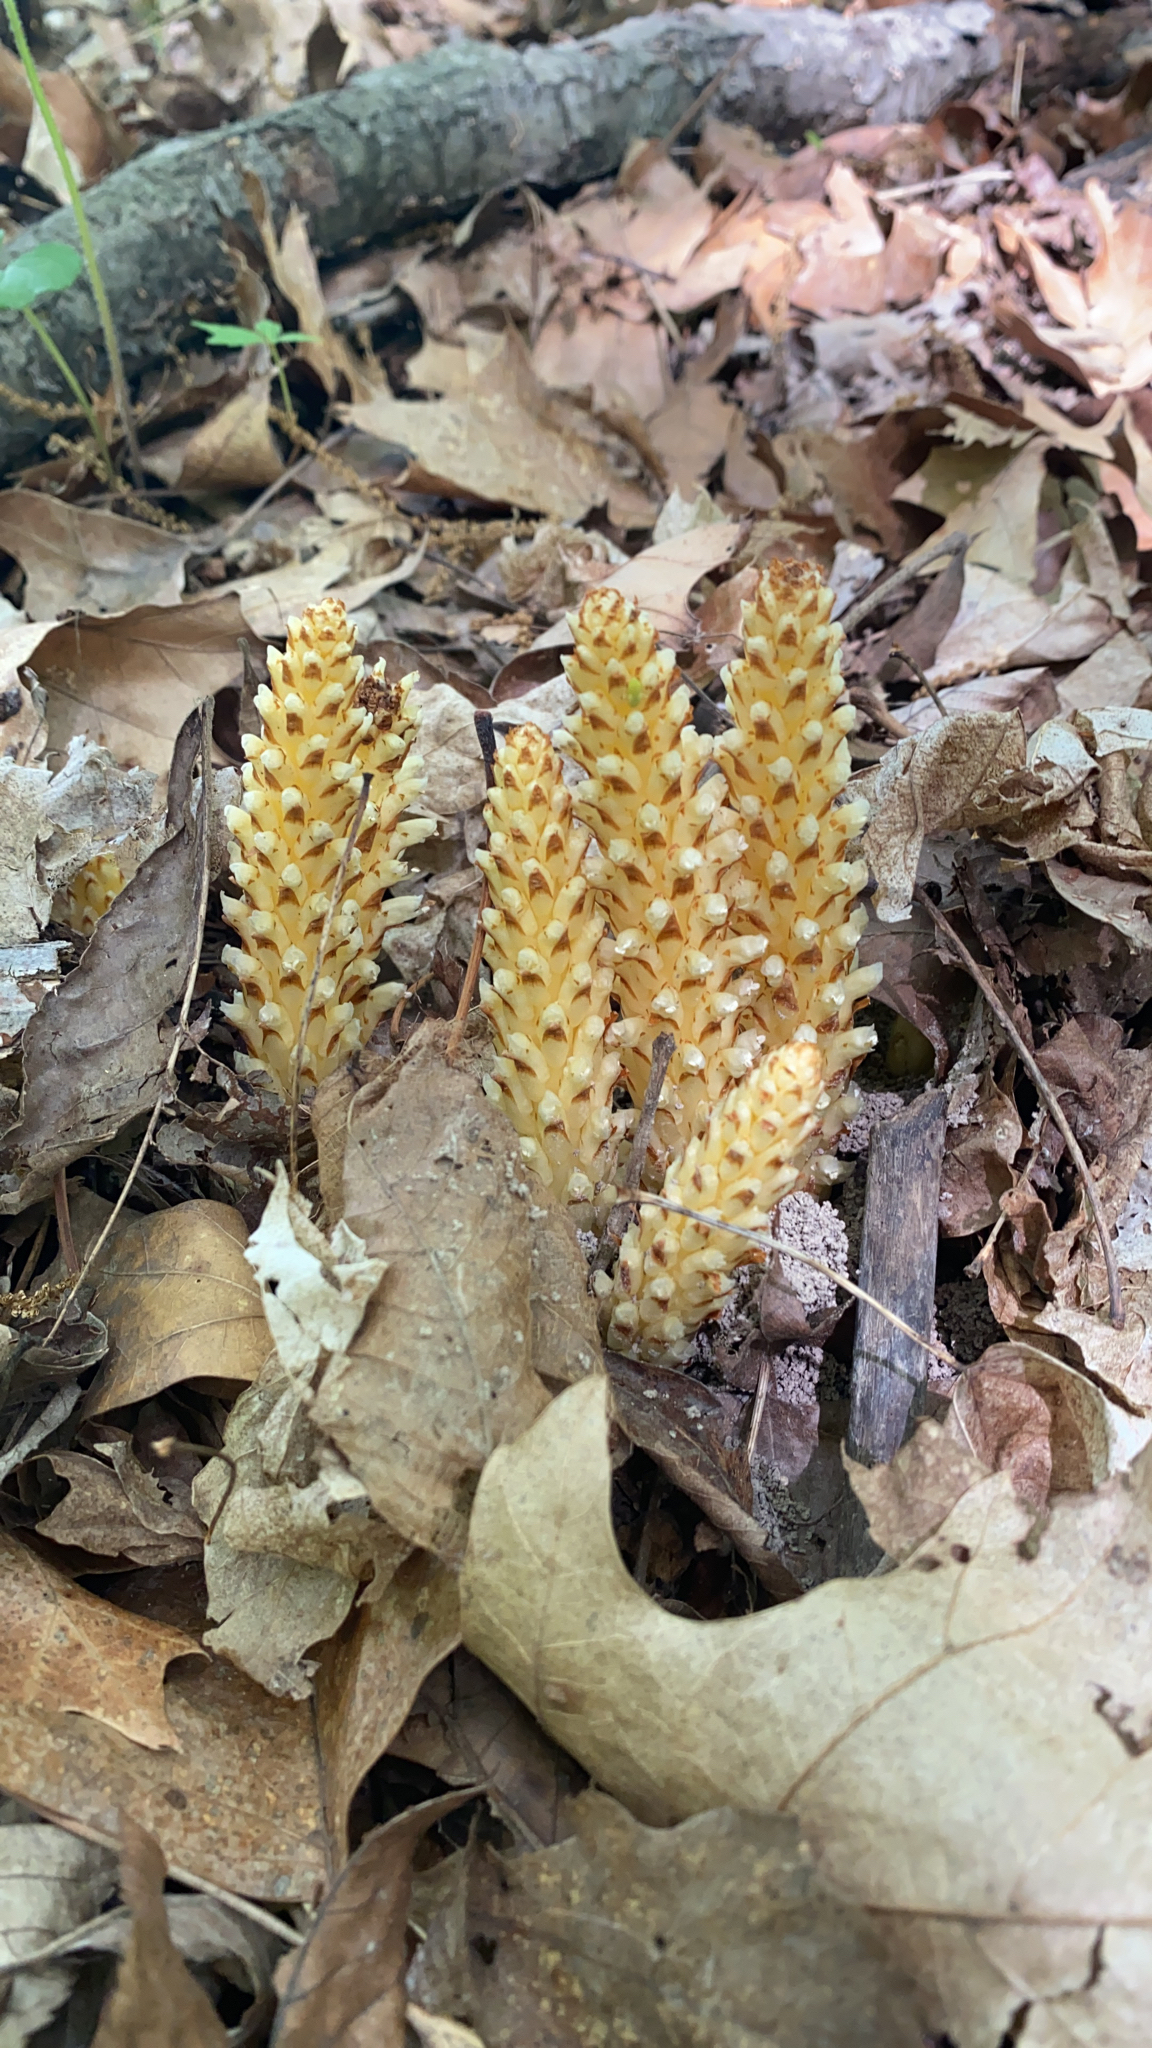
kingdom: Plantae
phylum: Tracheophyta
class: Magnoliopsida
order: Lamiales
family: Orobanchaceae
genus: Conopholis
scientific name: Conopholis americana
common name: American cancer-root
